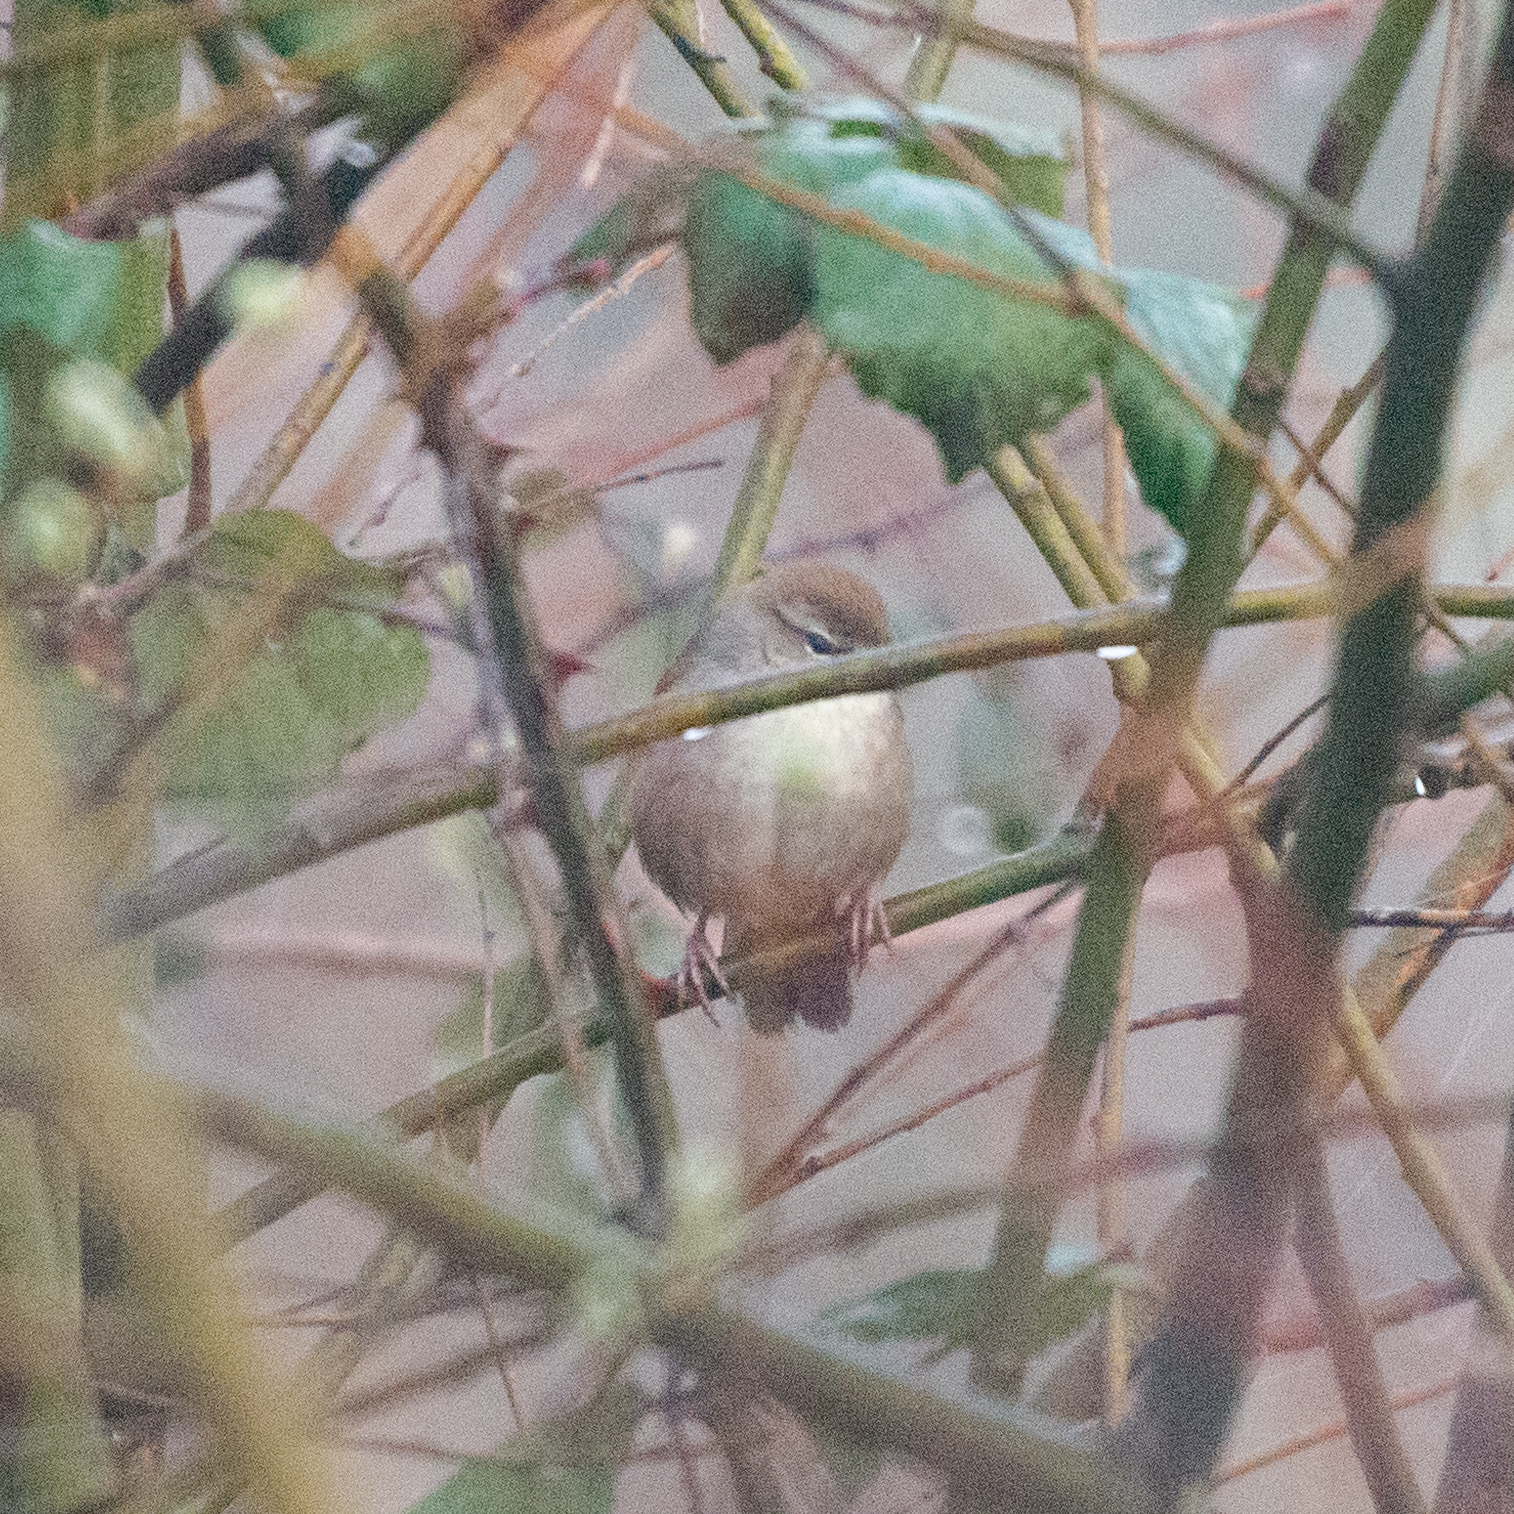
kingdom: Animalia
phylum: Chordata
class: Aves
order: Passeriformes
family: Cettiidae
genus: Cettia
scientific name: Cettia cetti
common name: Cetti's warbler
